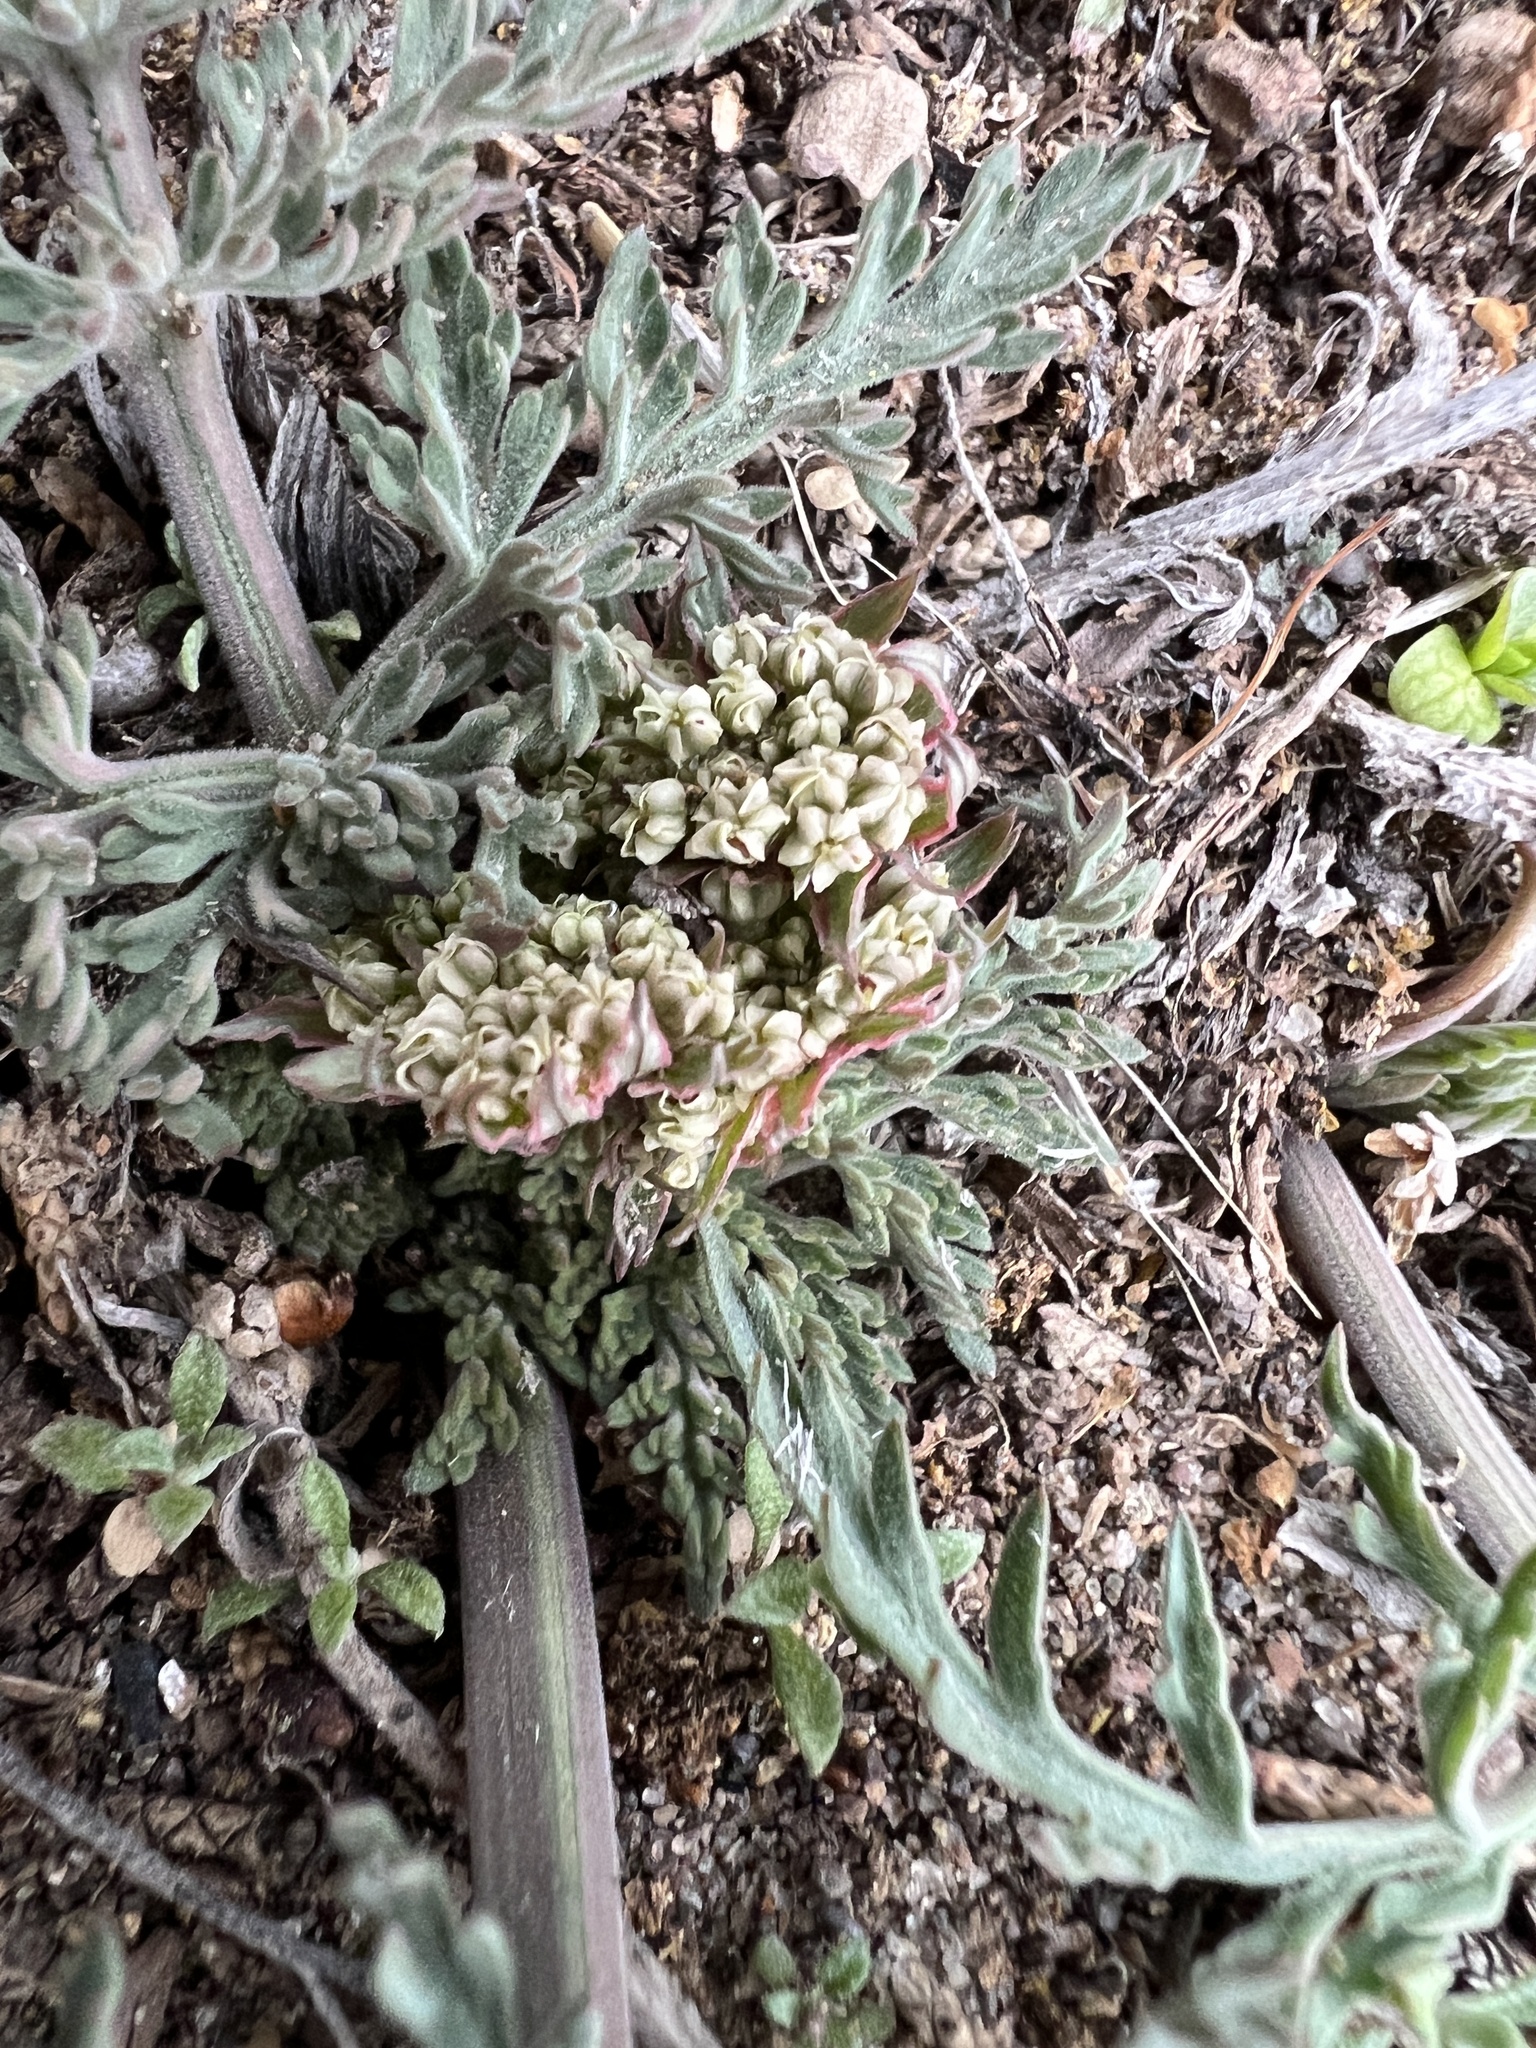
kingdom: Plantae
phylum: Tracheophyta
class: Magnoliopsida
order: Apiales
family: Apiaceae
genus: Lomatium
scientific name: Lomatium nevadense
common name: Nevada lomatium
